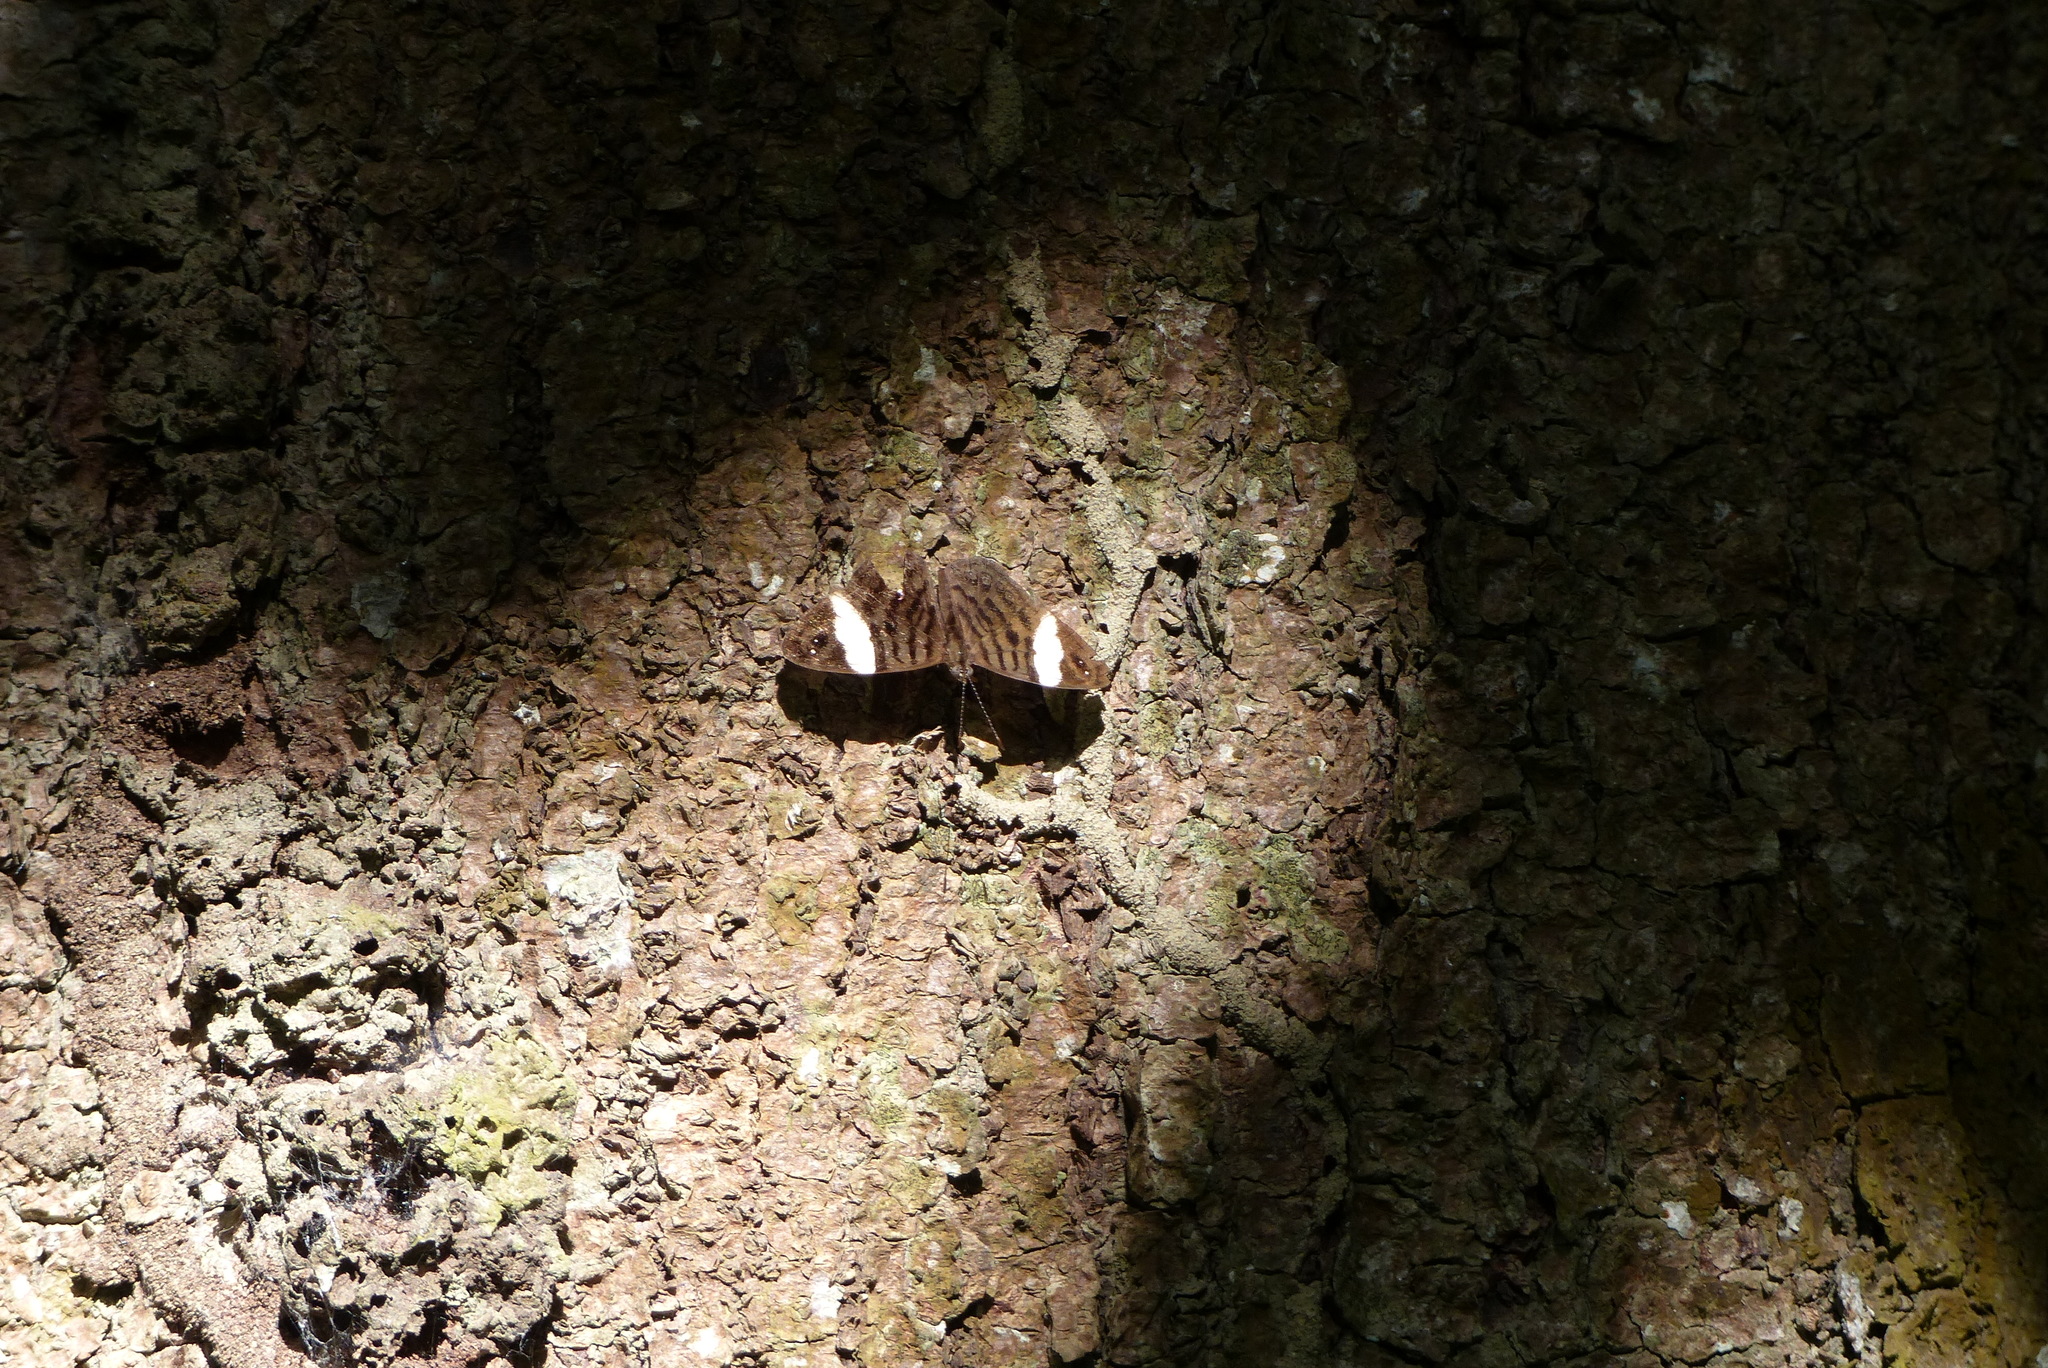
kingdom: Animalia
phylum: Arthropoda
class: Insecta
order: Lepidoptera
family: Nymphalidae
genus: Ectima
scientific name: Ectima thecla
